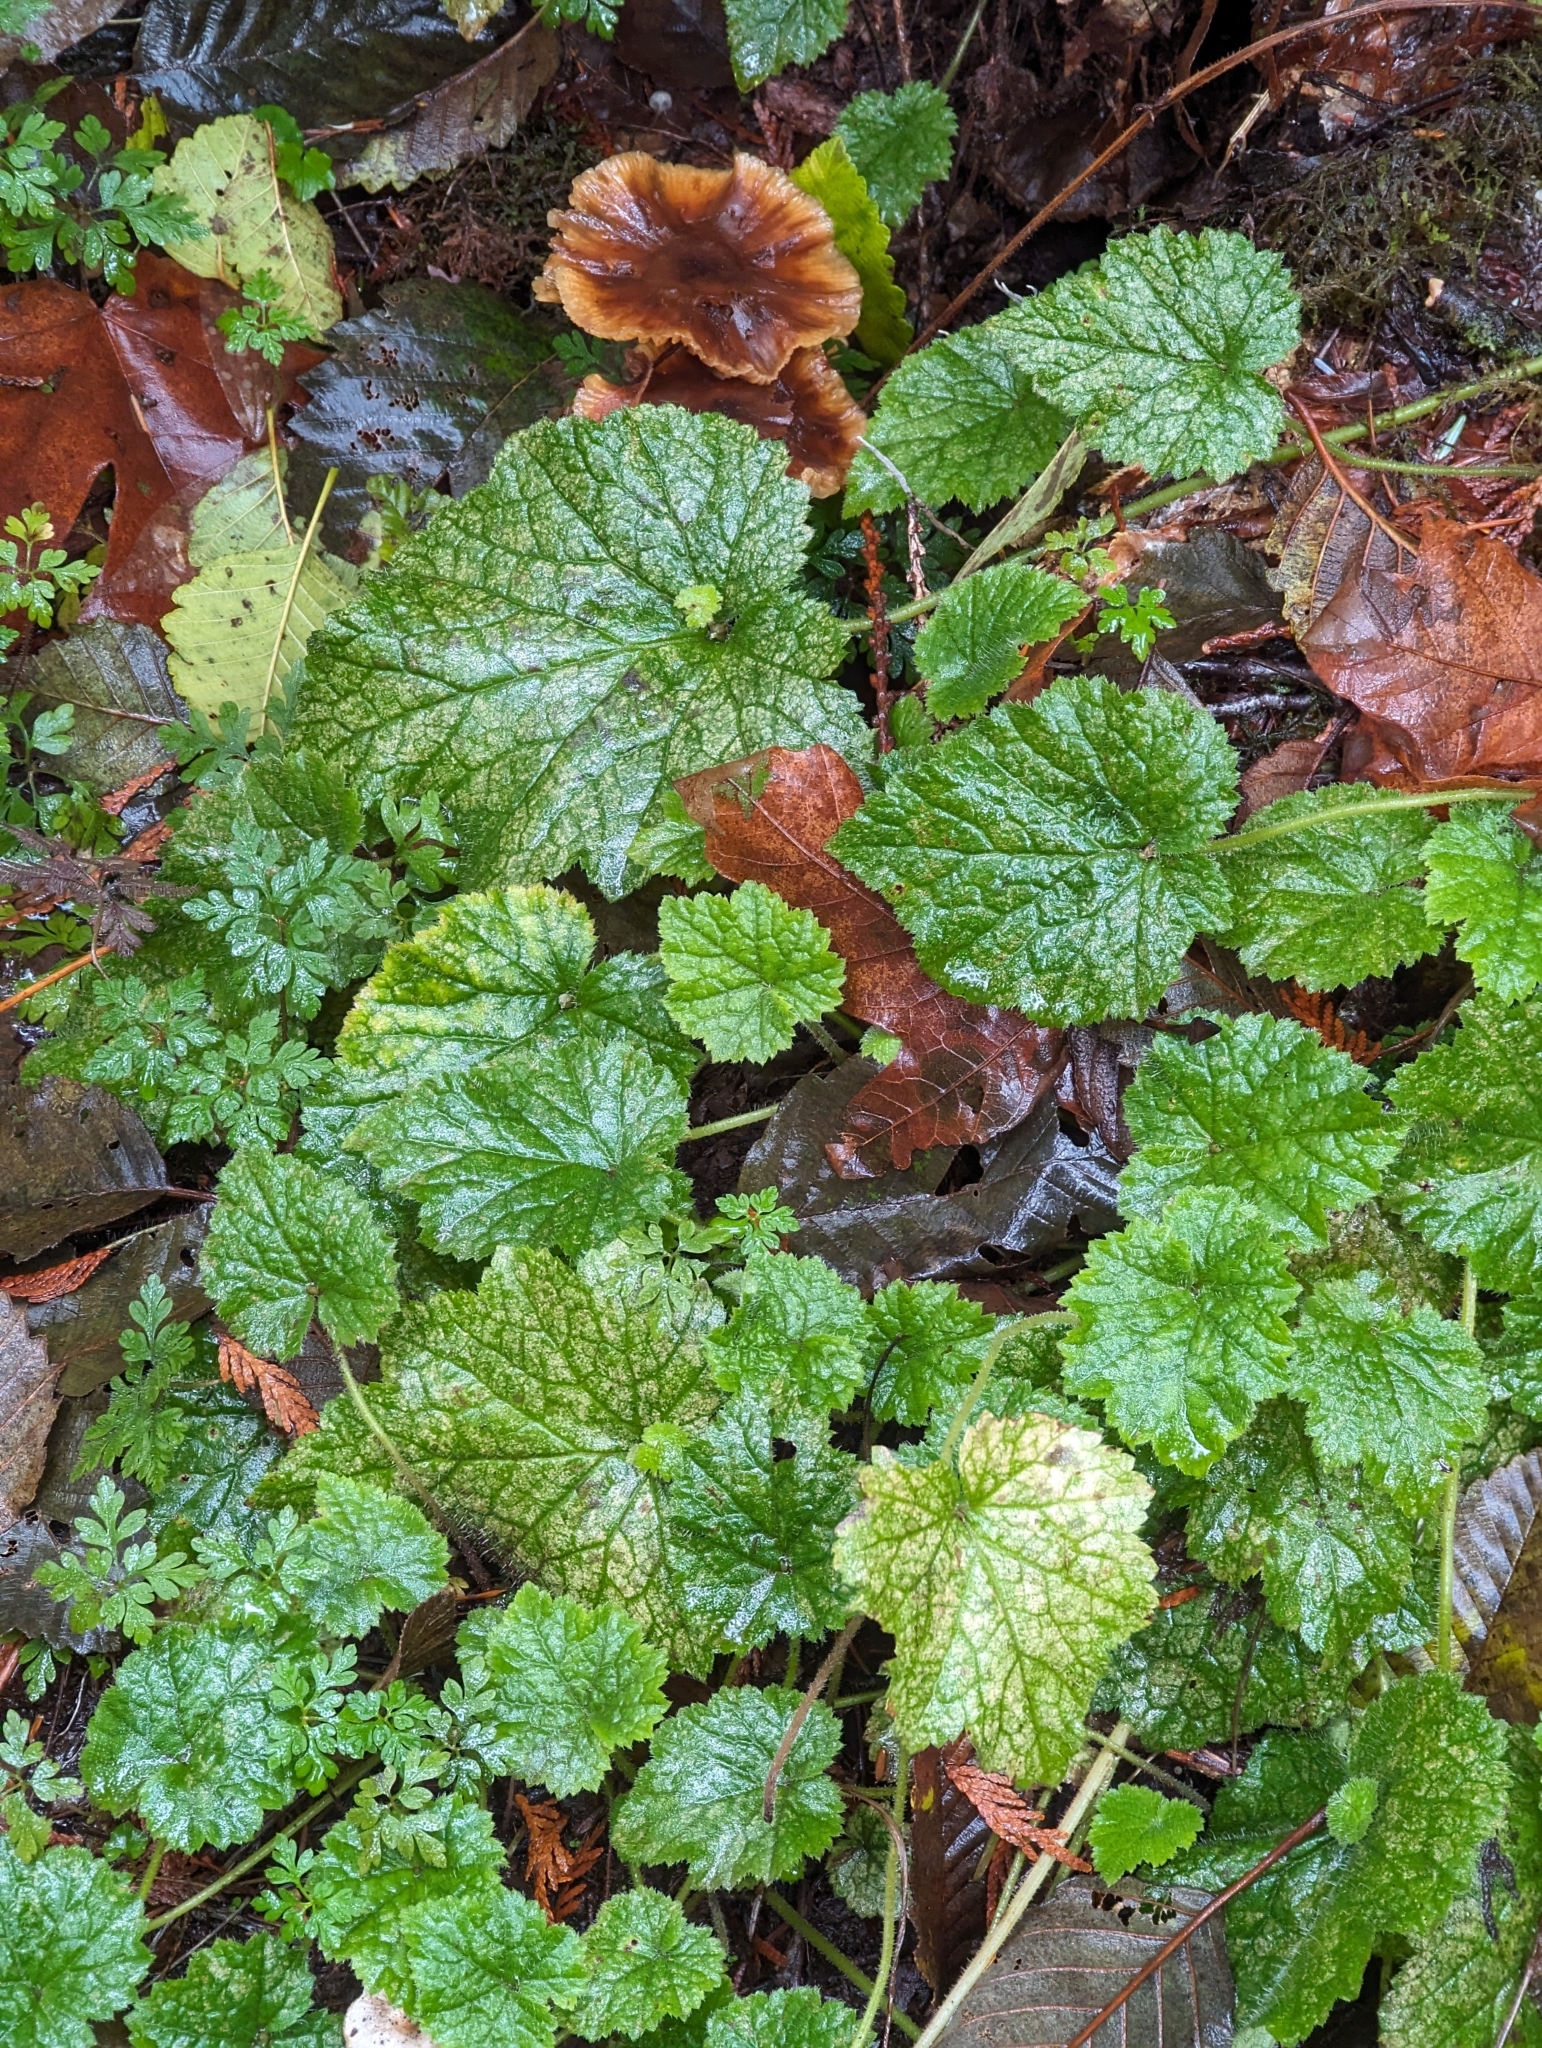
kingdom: Plantae
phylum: Tracheophyta
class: Magnoliopsida
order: Saxifragales
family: Saxifragaceae
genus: Tolmiea
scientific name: Tolmiea menziesii
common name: Pick-a-back-plant
